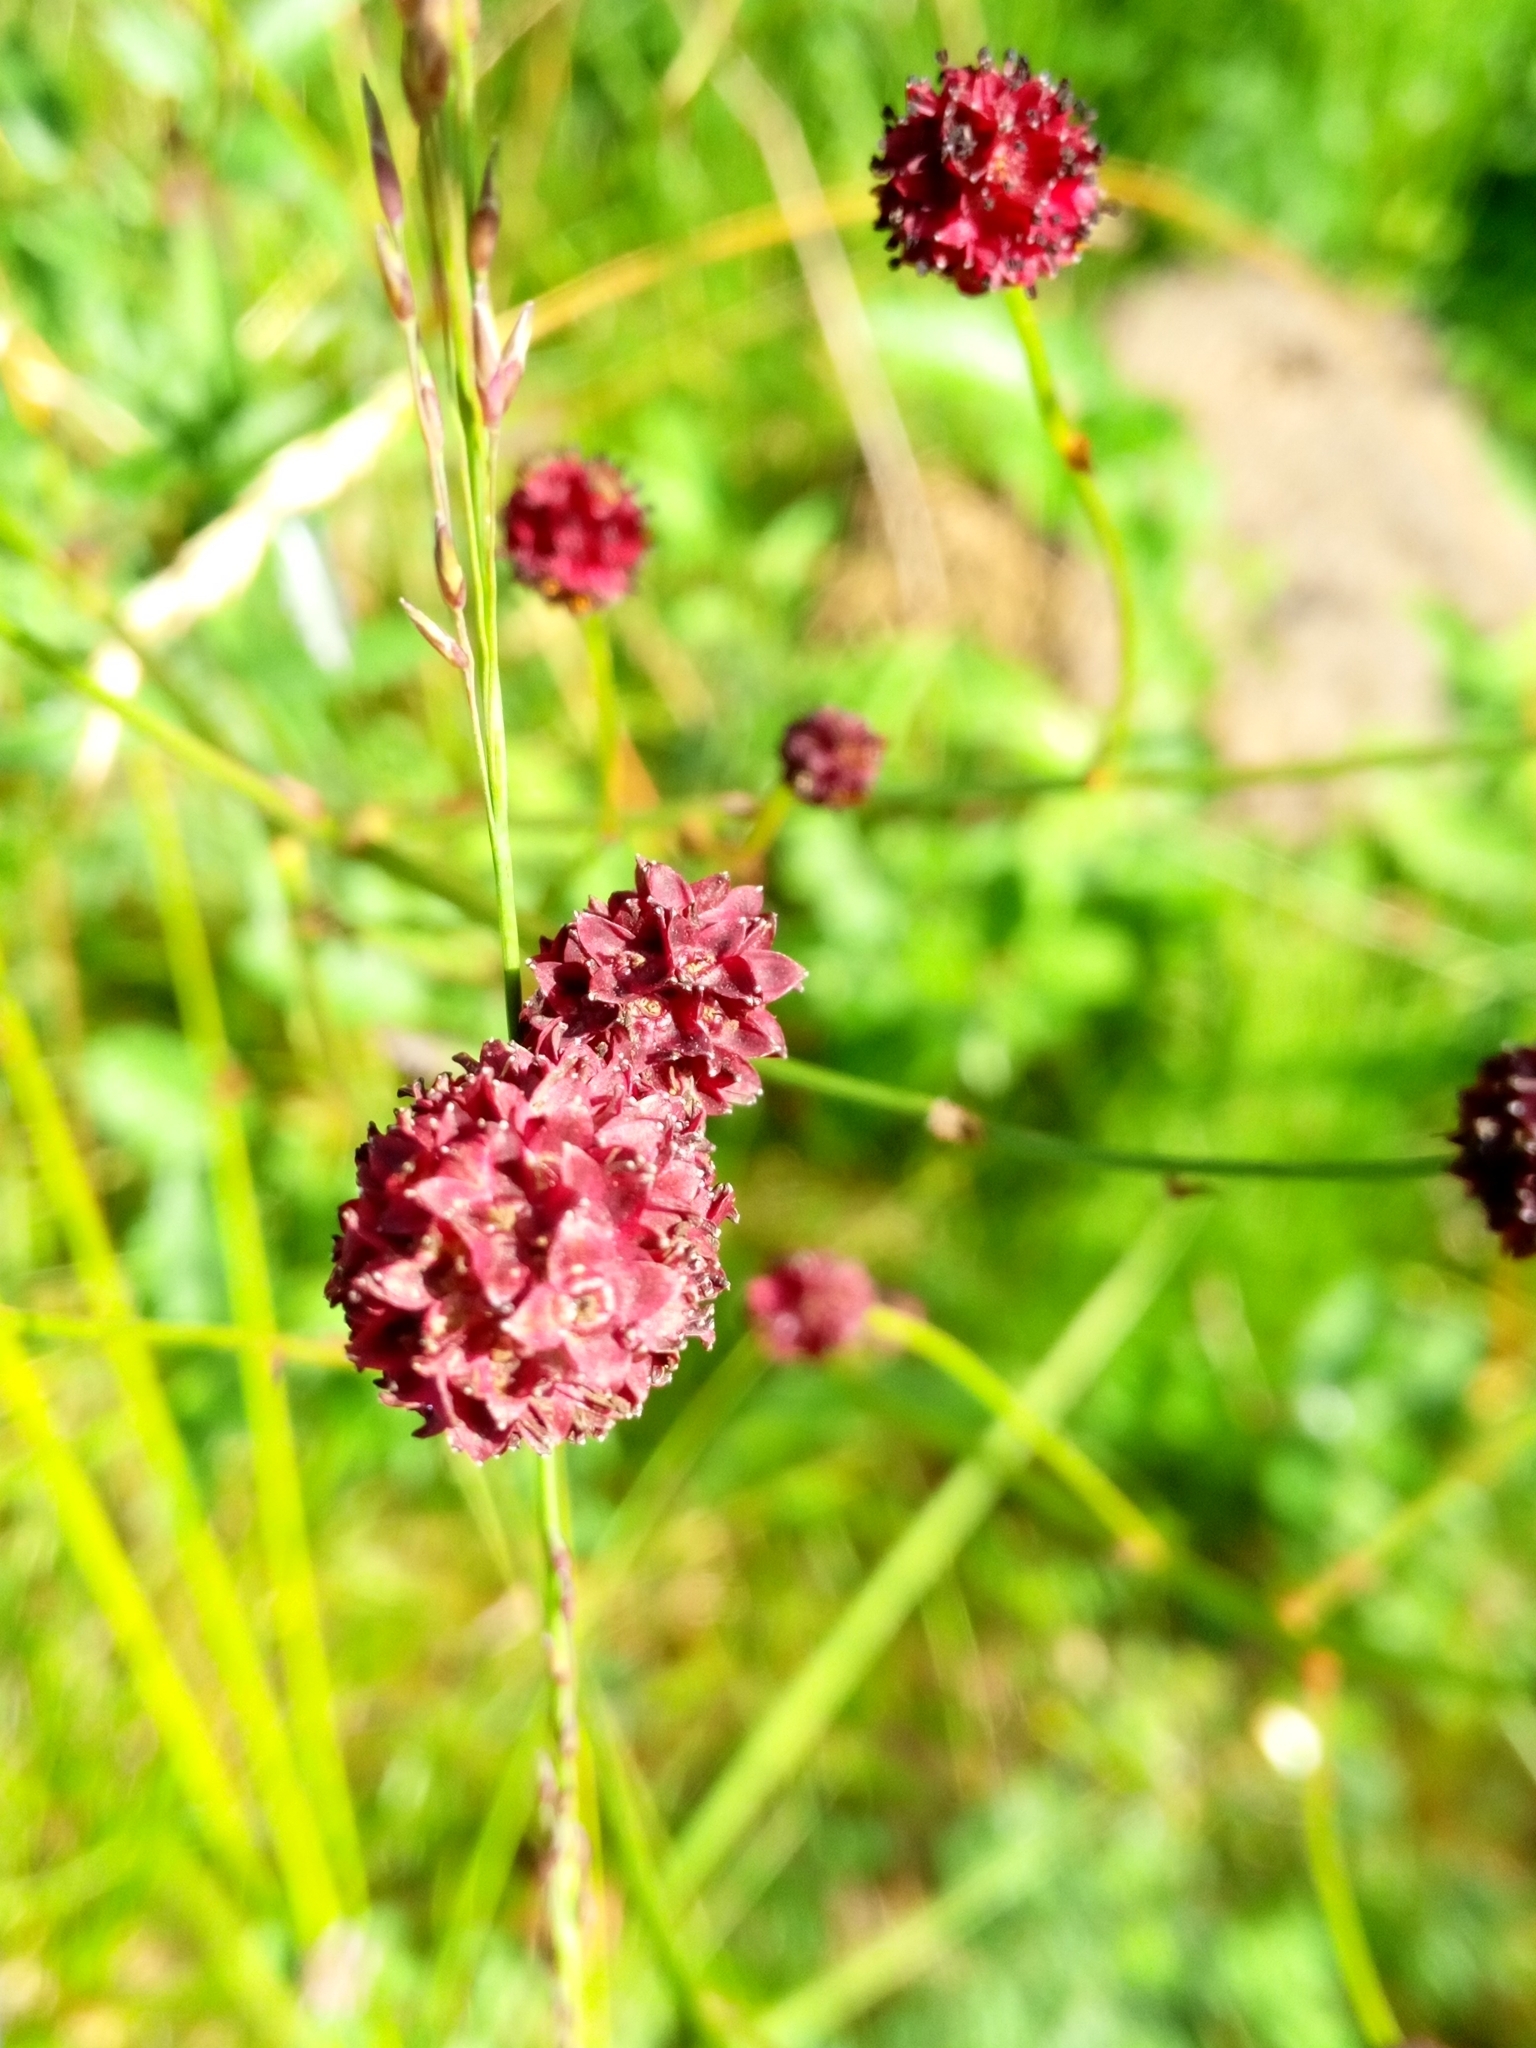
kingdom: Plantae
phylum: Tracheophyta
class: Magnoliopsida
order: Rosales
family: Rosaceae
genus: Sanguisorba
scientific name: Sanguisorba officinalis
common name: Great burnet
